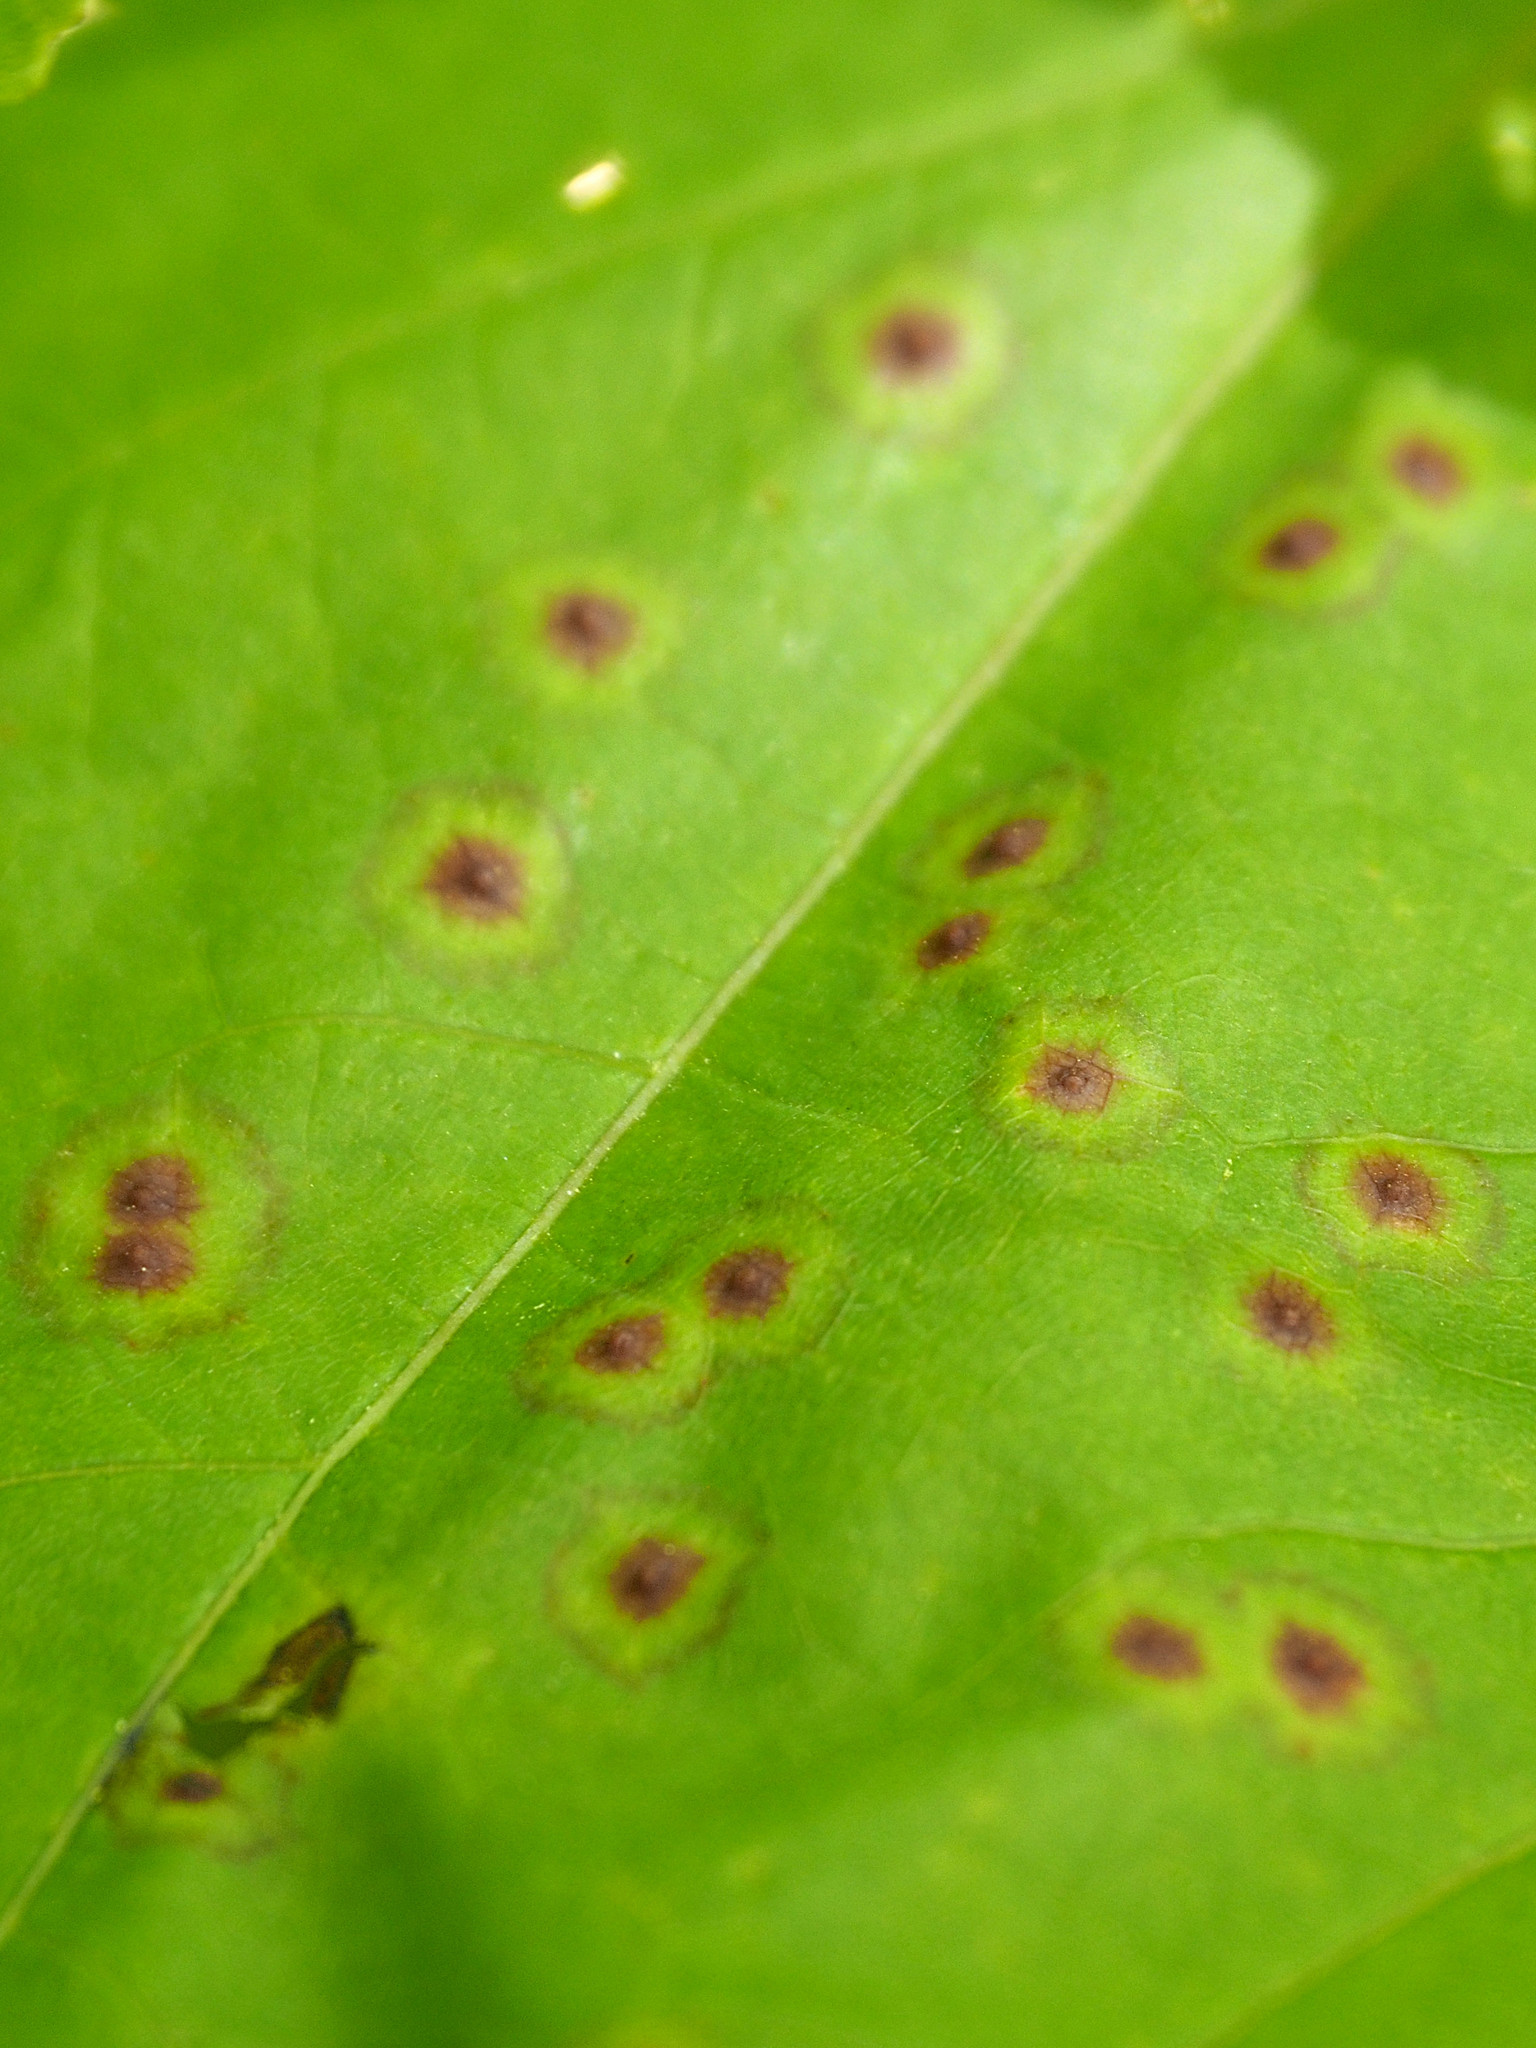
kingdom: Animalia
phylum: Arthropoda
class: Insecta
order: Diptera
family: Cecidomyiidae
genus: Acericecis
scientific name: Acericecis ocellaris
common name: Ocellate gall midge
